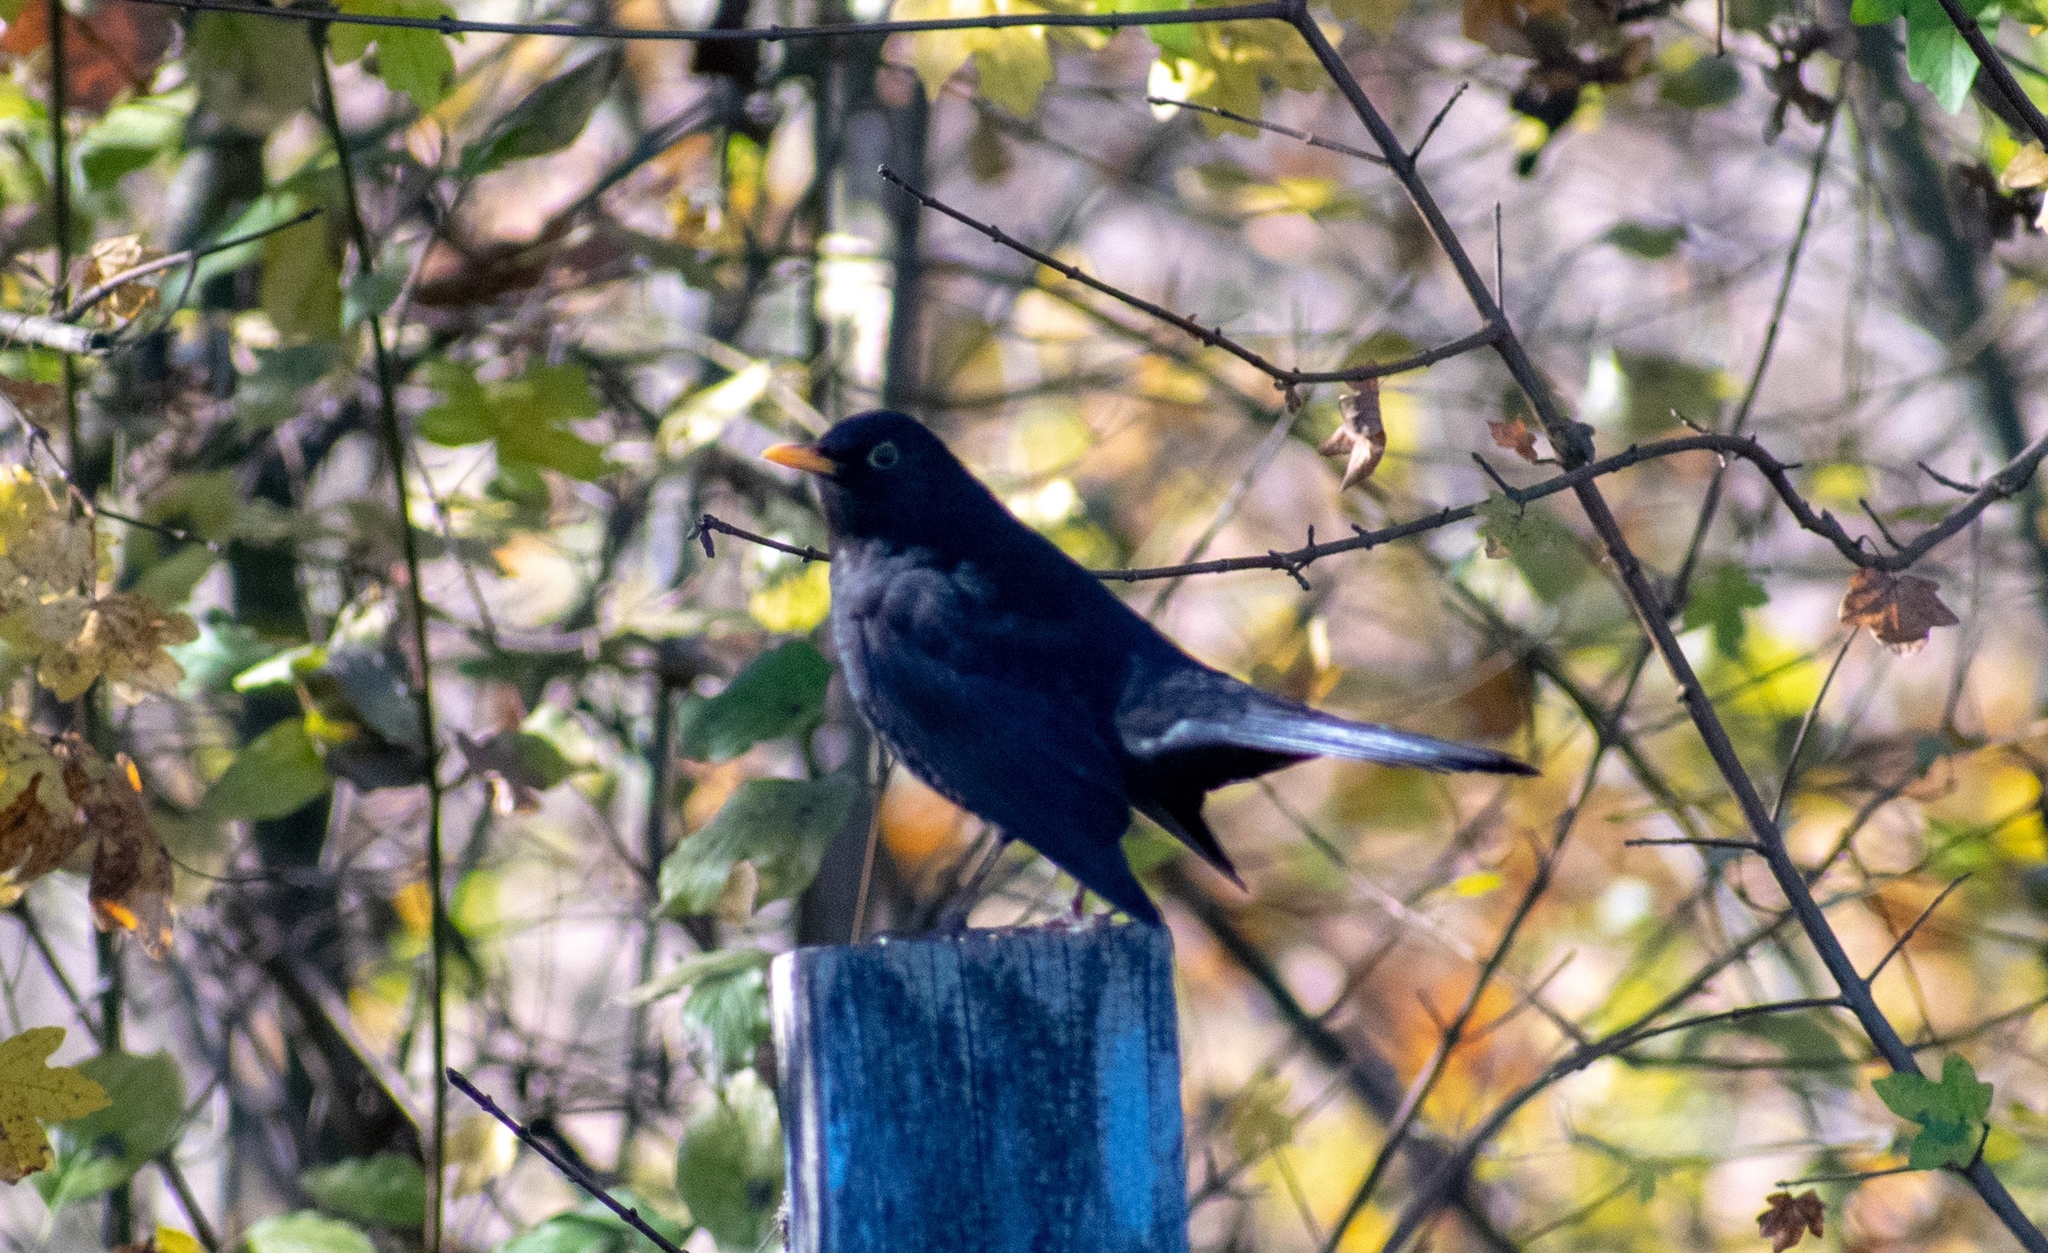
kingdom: Animalia
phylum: Chordata
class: Aves
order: Passeriformes
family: Turdidae
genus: Turdus
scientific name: Turdus merula
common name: Common blackbird
